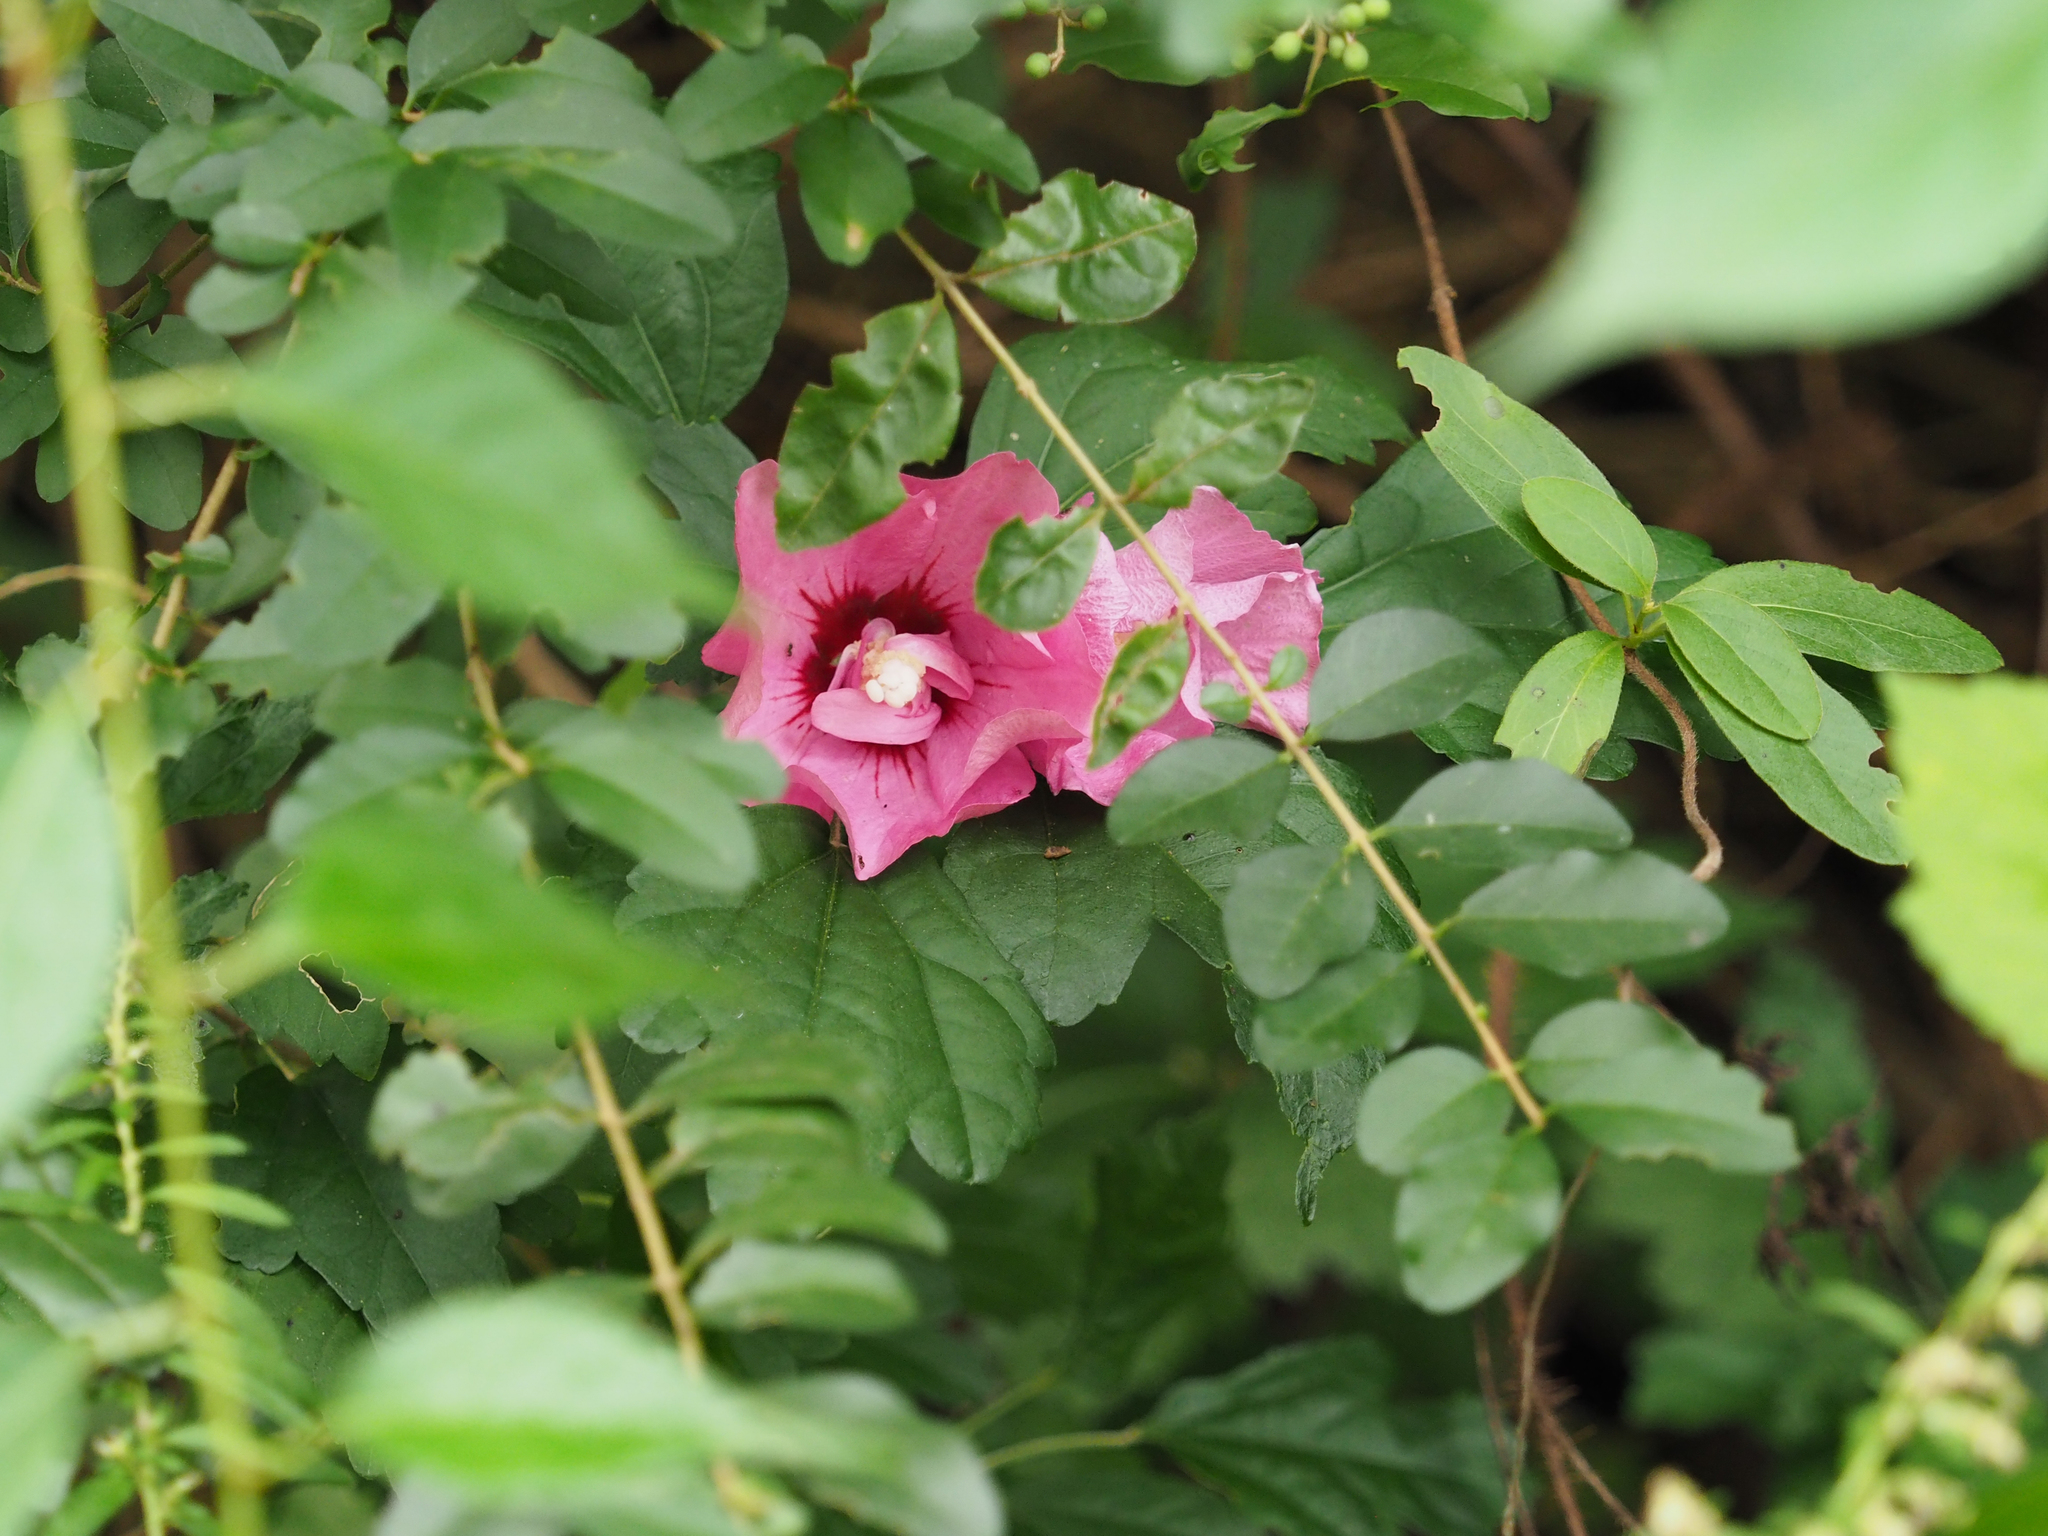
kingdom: Plantae
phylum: Tracheophyta
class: Magnoliopsida
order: Malvales
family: Malvaceae
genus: Hibiscus
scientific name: Hibiscus syriacus
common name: Syrian ketmia
